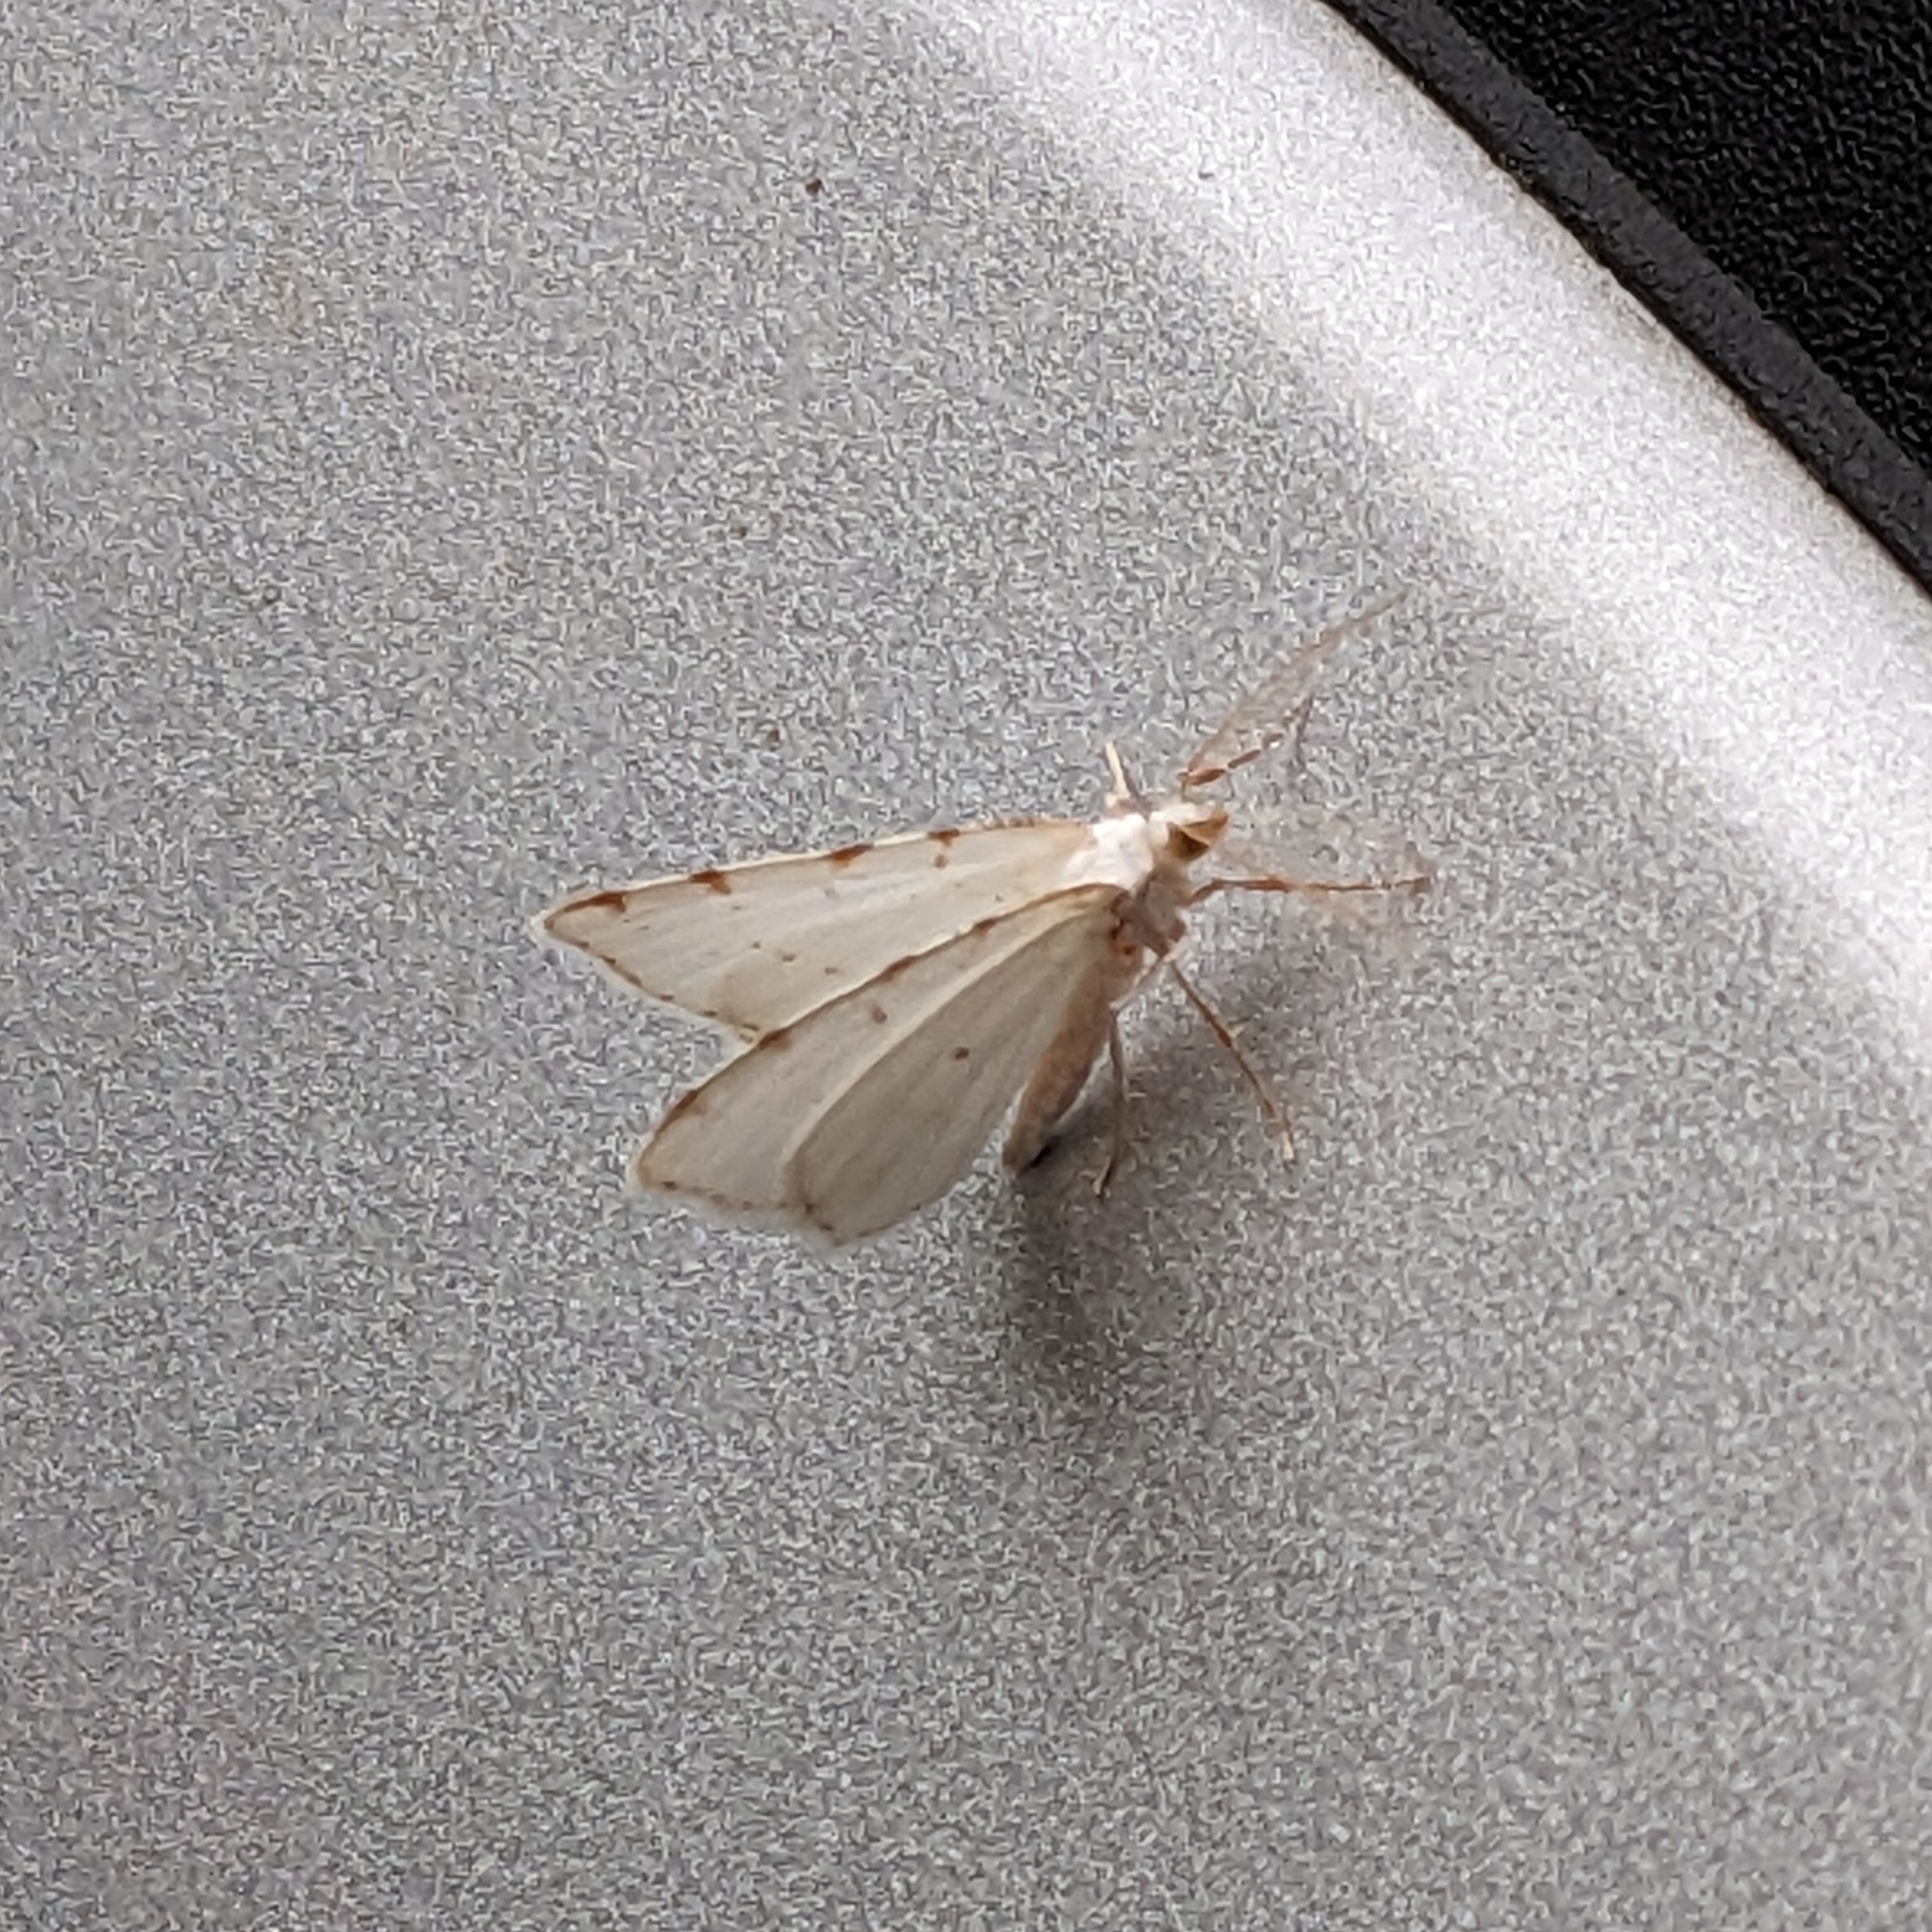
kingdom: Animalia
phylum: Arthropoda
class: Insecta
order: Lepidoptera
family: Geometridae
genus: Macaria
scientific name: Macaria pustularia
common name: Lesser maple spanworm moth
